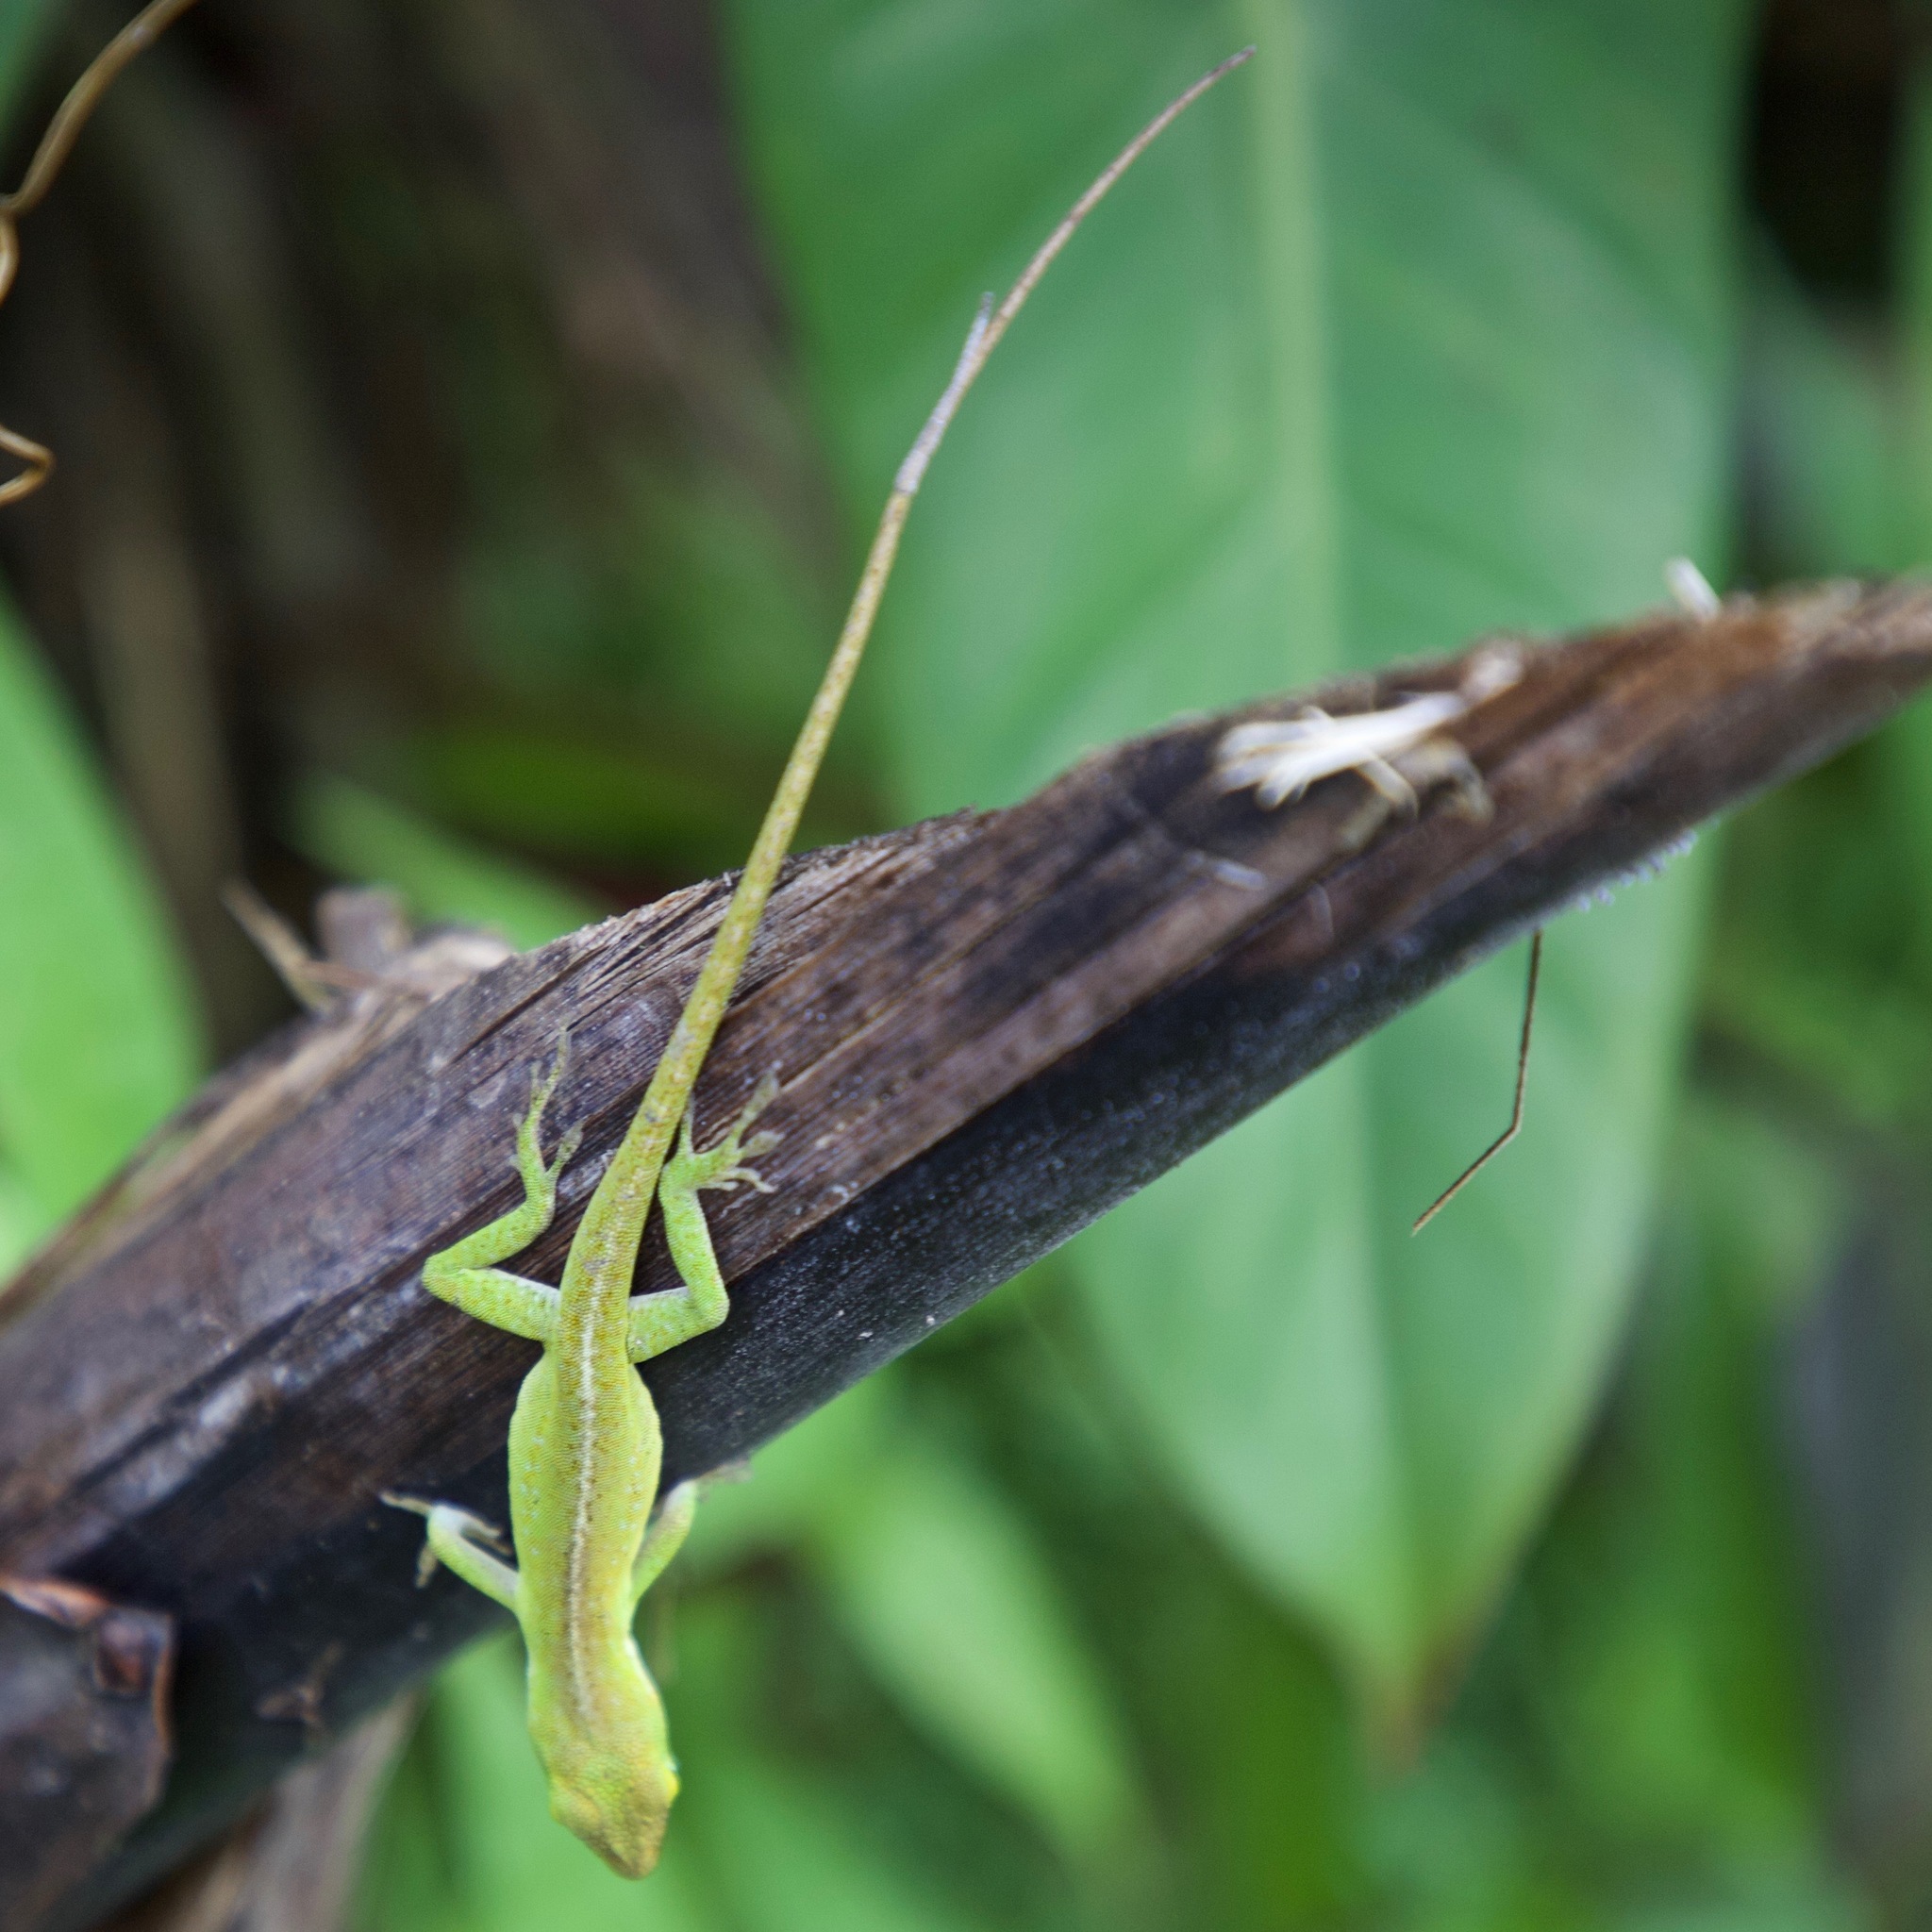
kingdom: Animalia
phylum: Chordata
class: Squamata
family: Dactyloidae
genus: Anolis
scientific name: Anolis carolinensis
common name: Green anole
